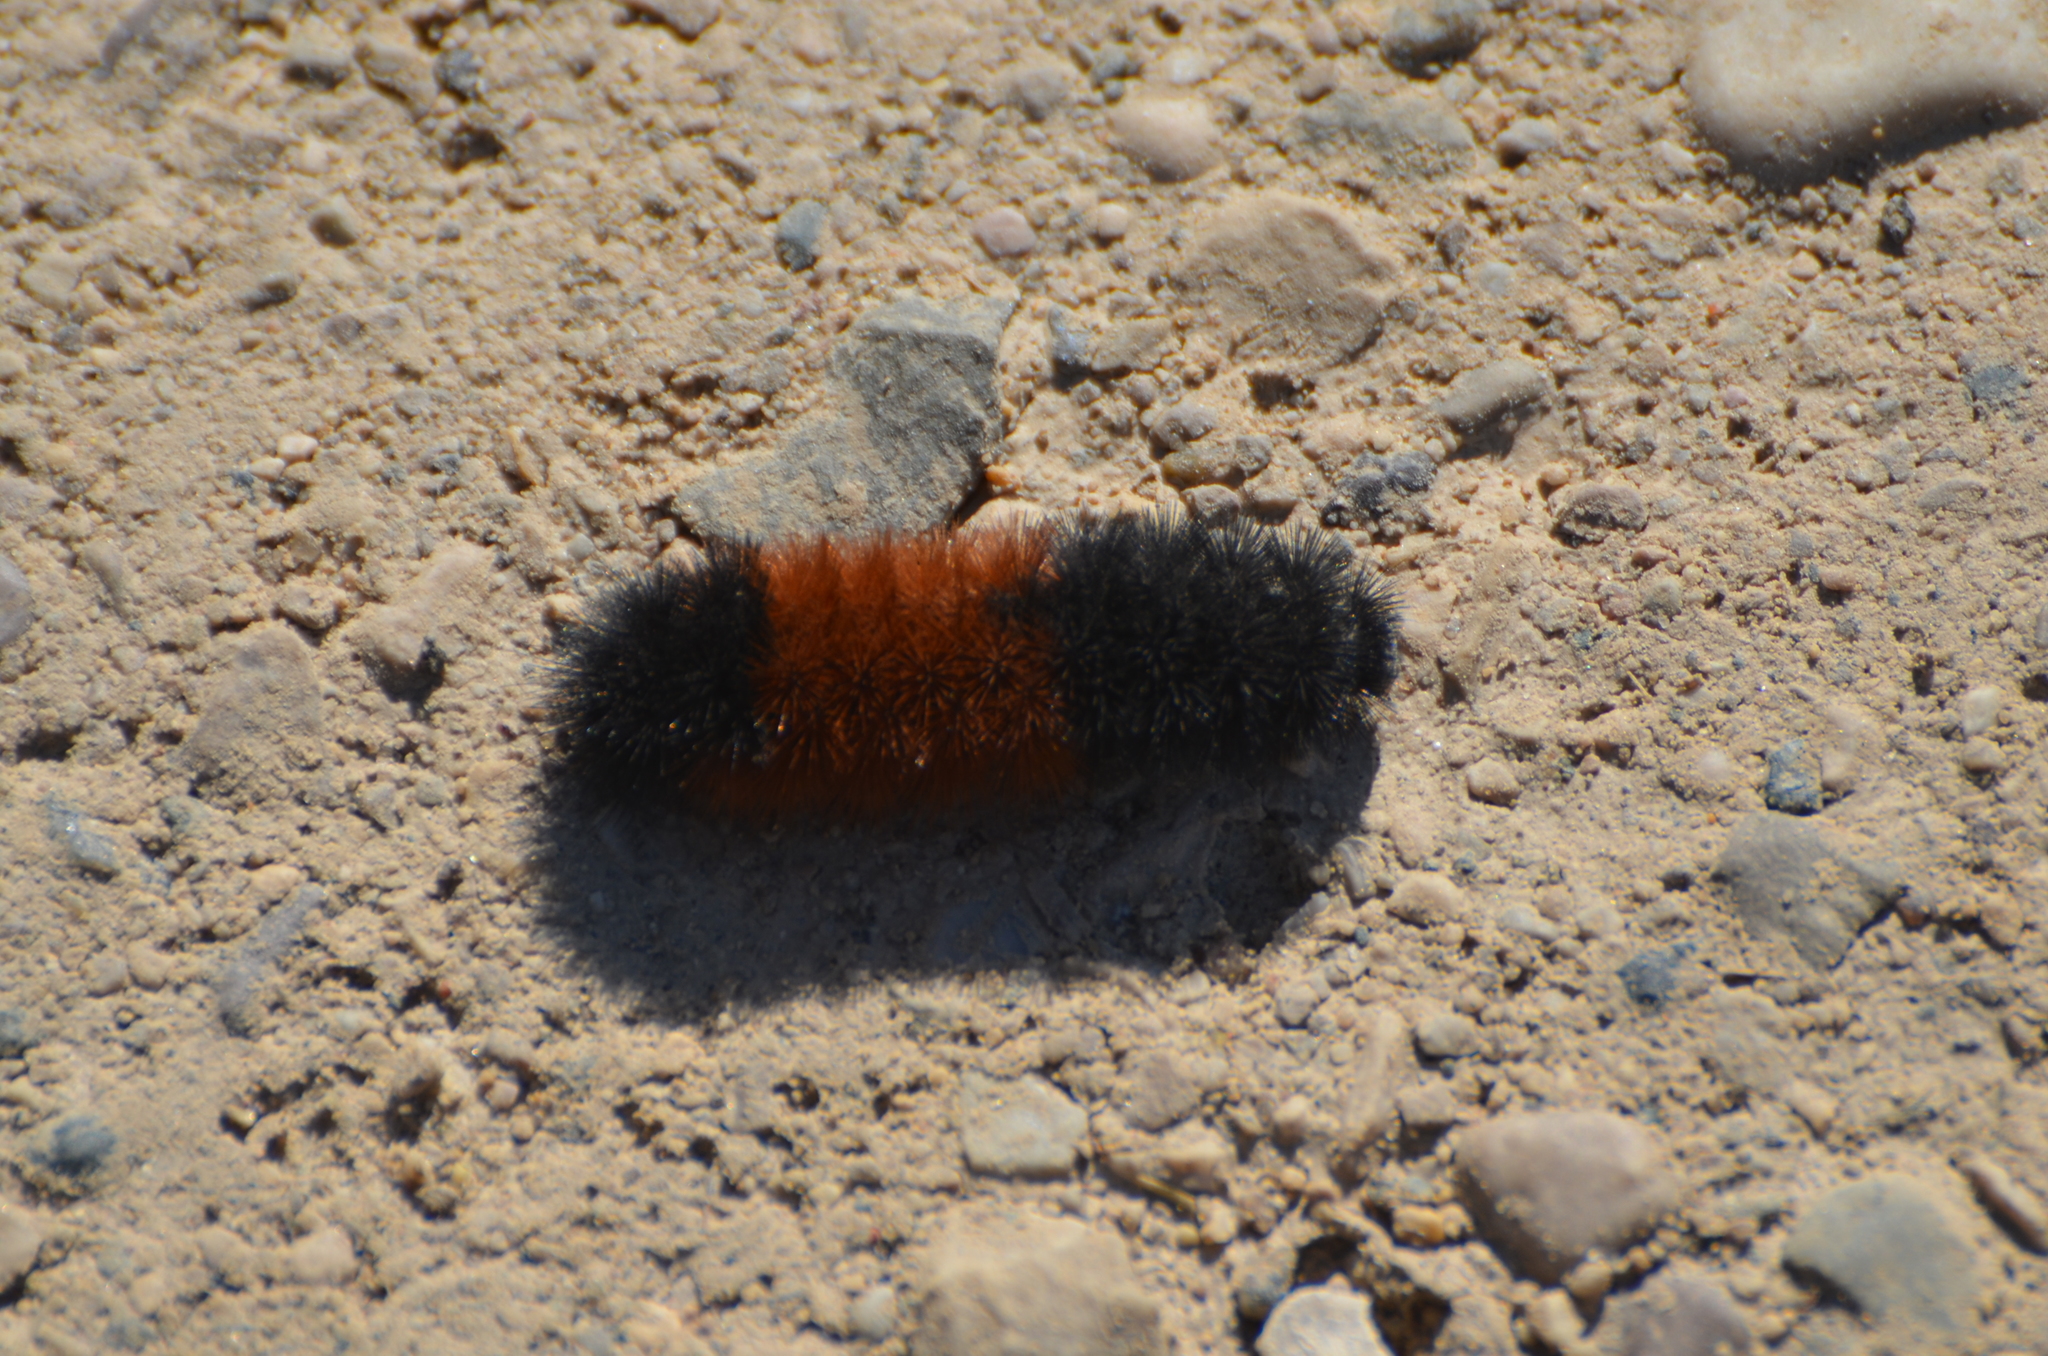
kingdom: Animalia
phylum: Arthropoda
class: Insecta
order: Lepidoptera
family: Erebidae
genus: Pyrrharctia
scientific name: Pyrrharctia isabella
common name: Isabella tiger moth
